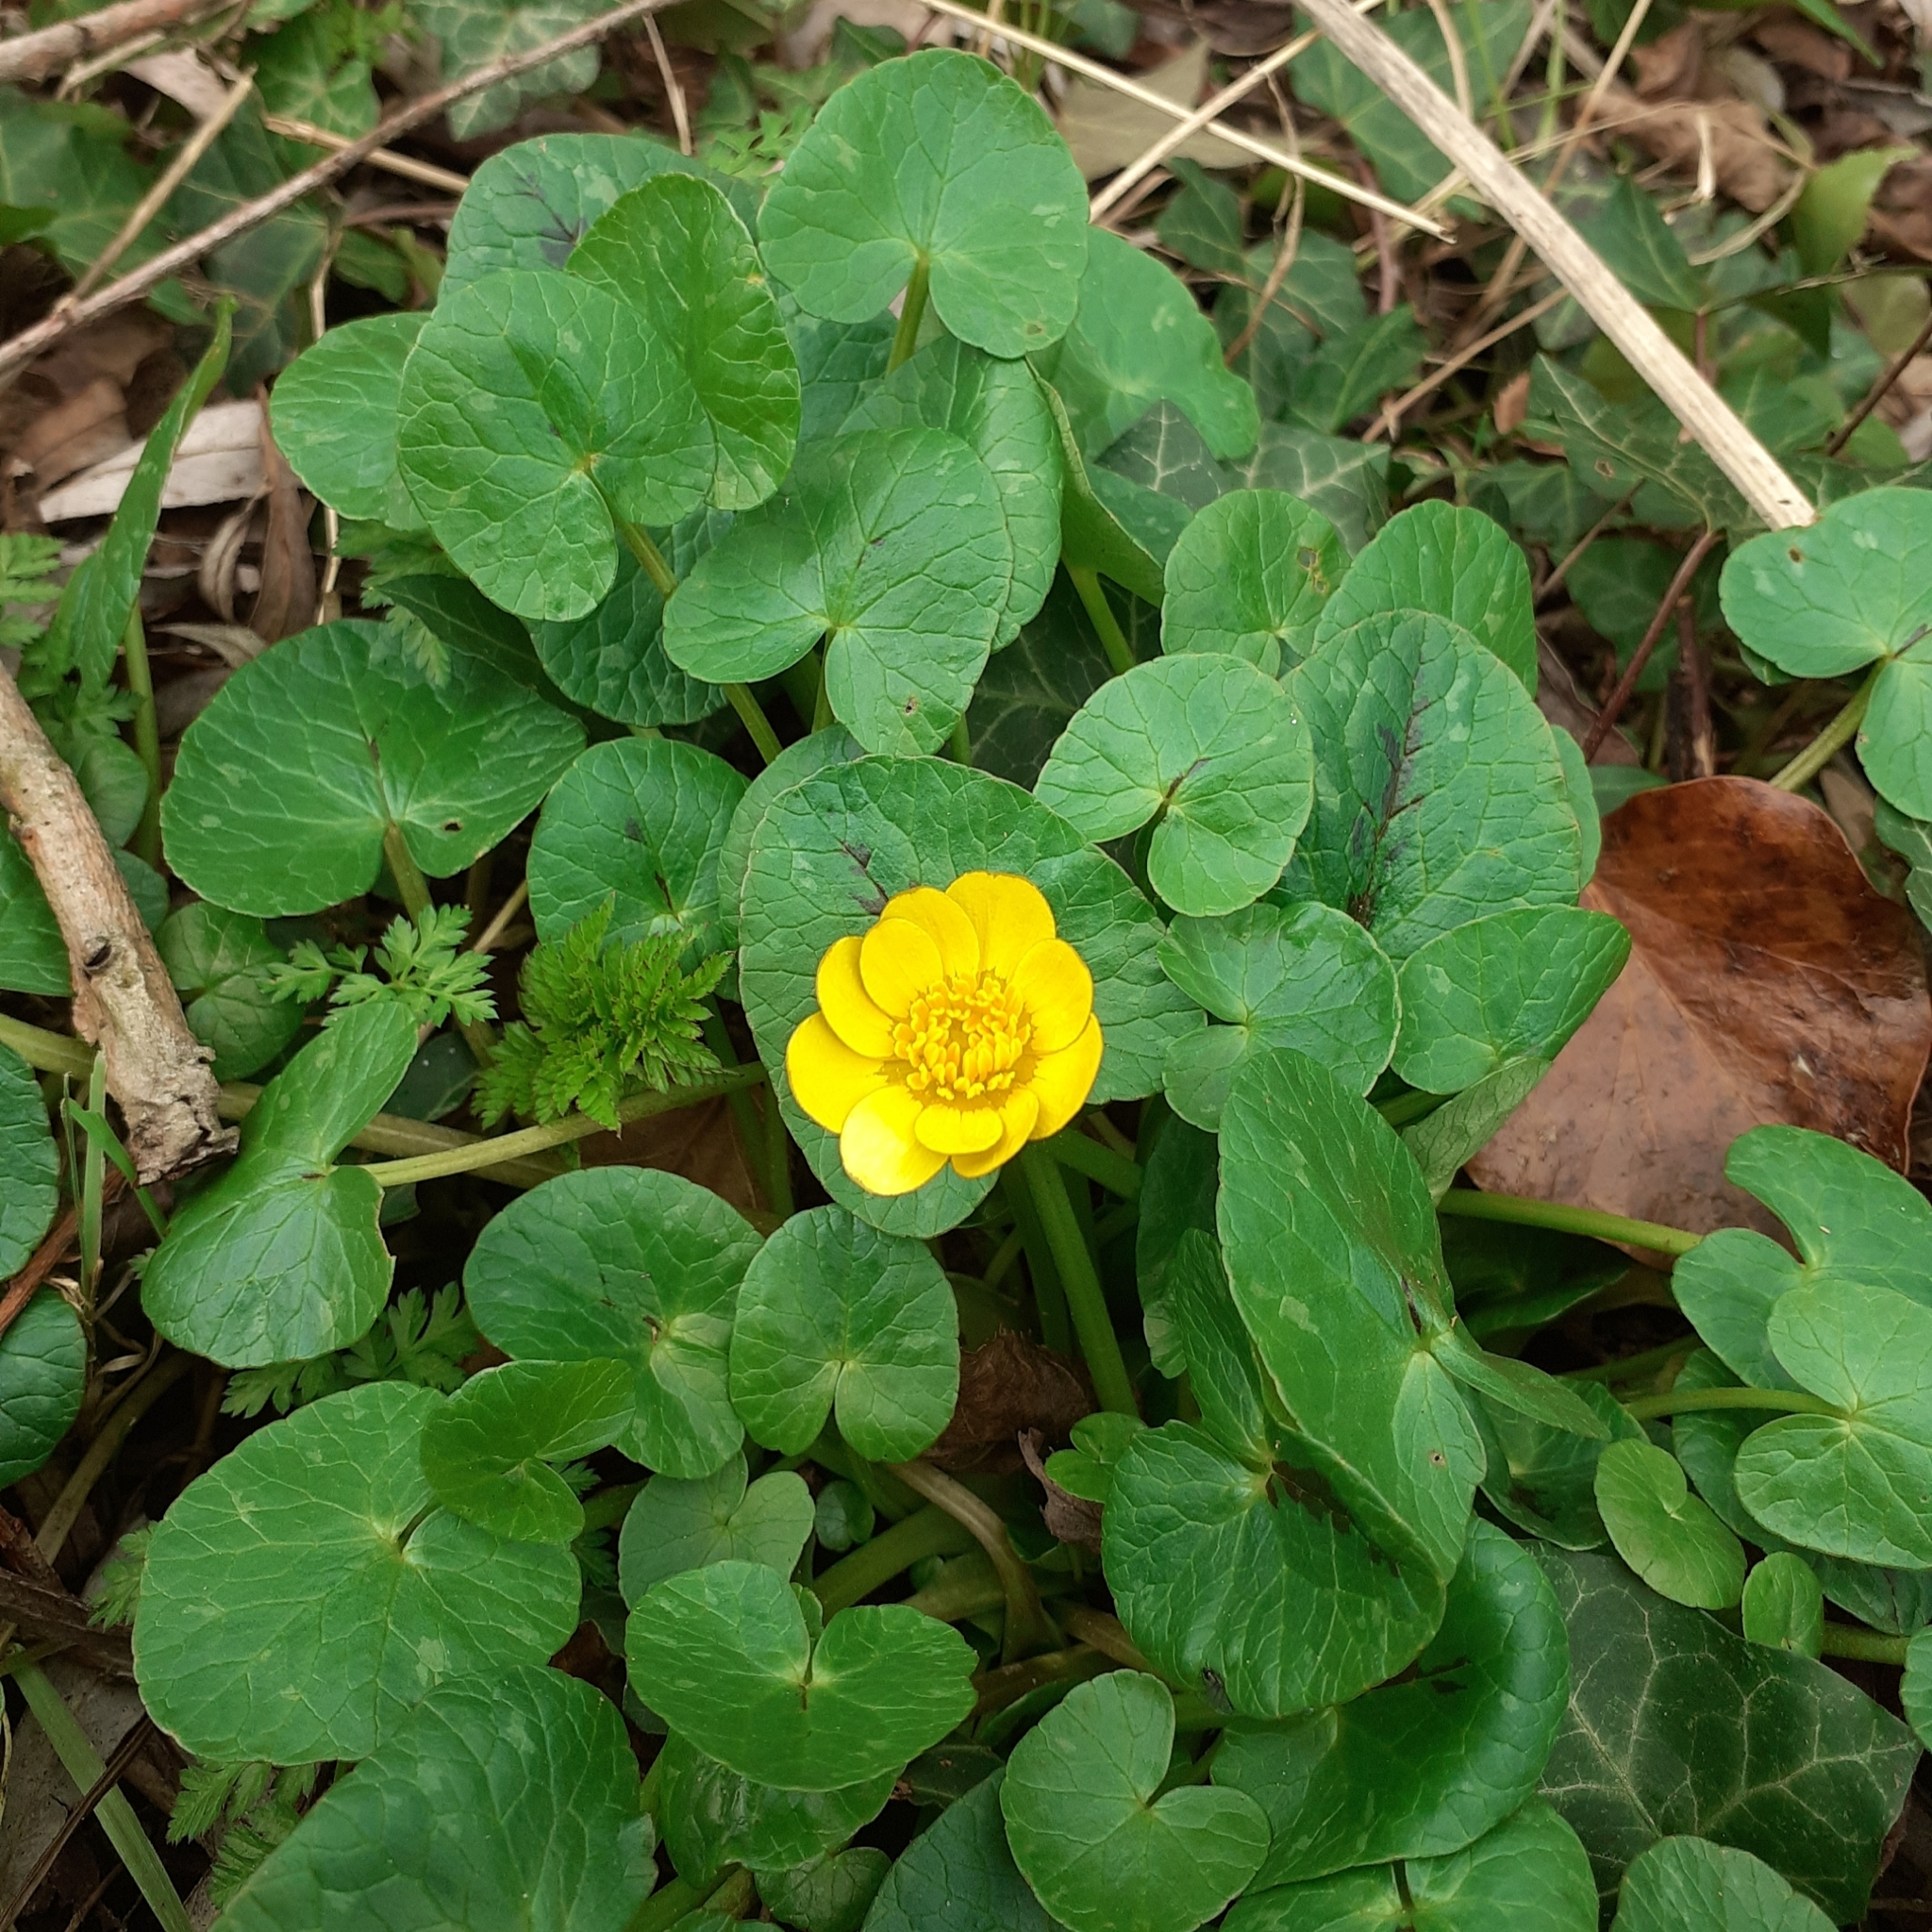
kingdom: Plantae
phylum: Tracheophyta
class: Magnoliopsida
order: Ranunculales
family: Ranunculaceae
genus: Ficaria
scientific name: Ficaria verna
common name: Lesser celandine
